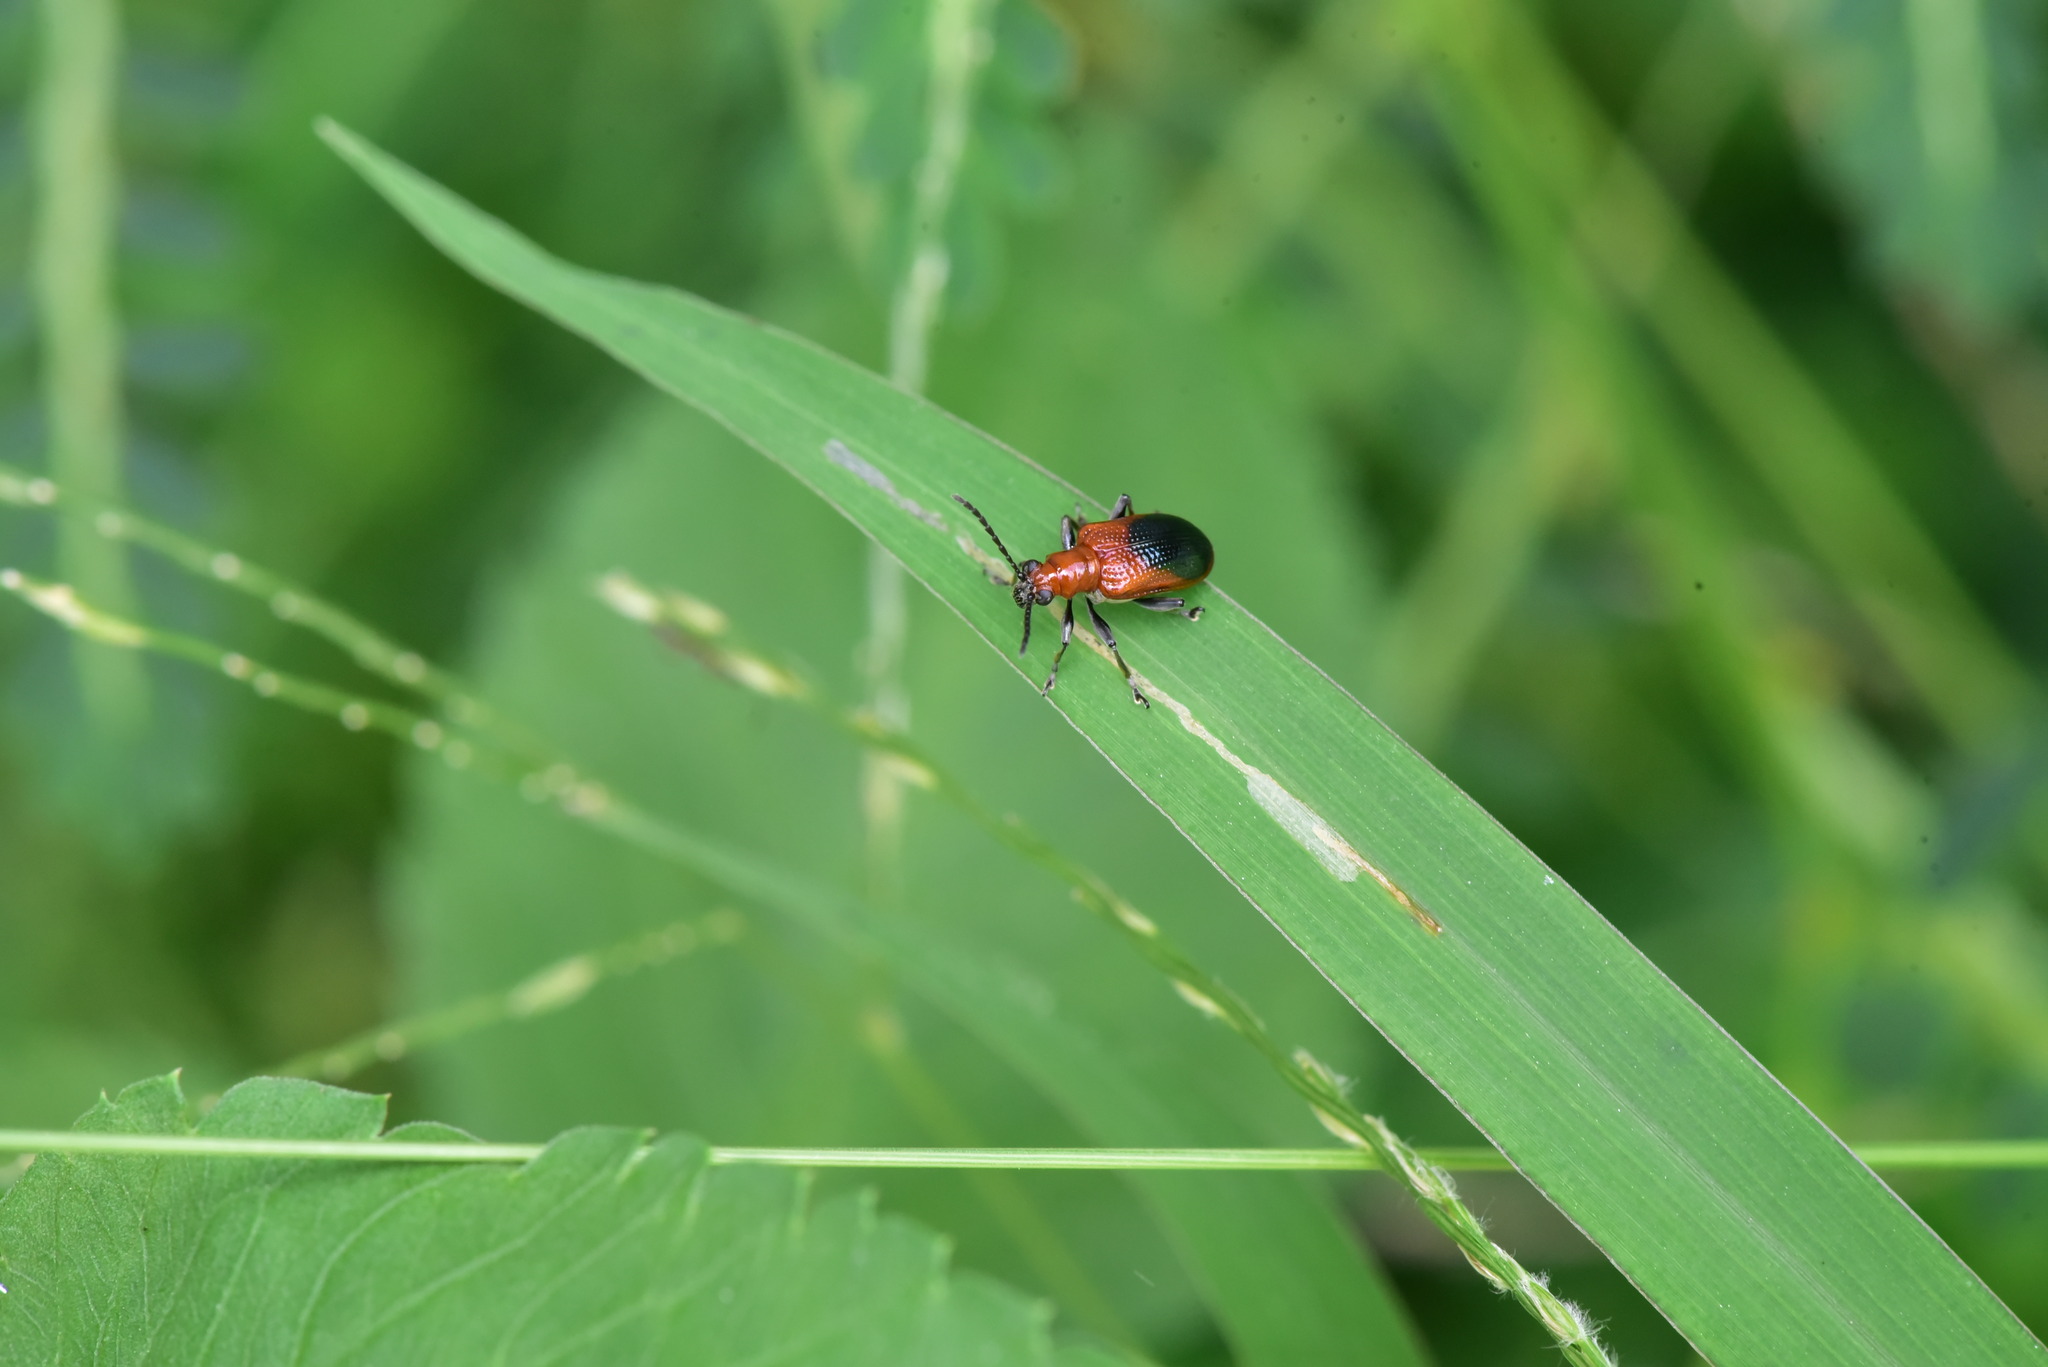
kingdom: Animalia
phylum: Arthropoda
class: Insecta
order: Coleoptera
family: Chrysomelidae
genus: Lema
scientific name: Lema praeusta
